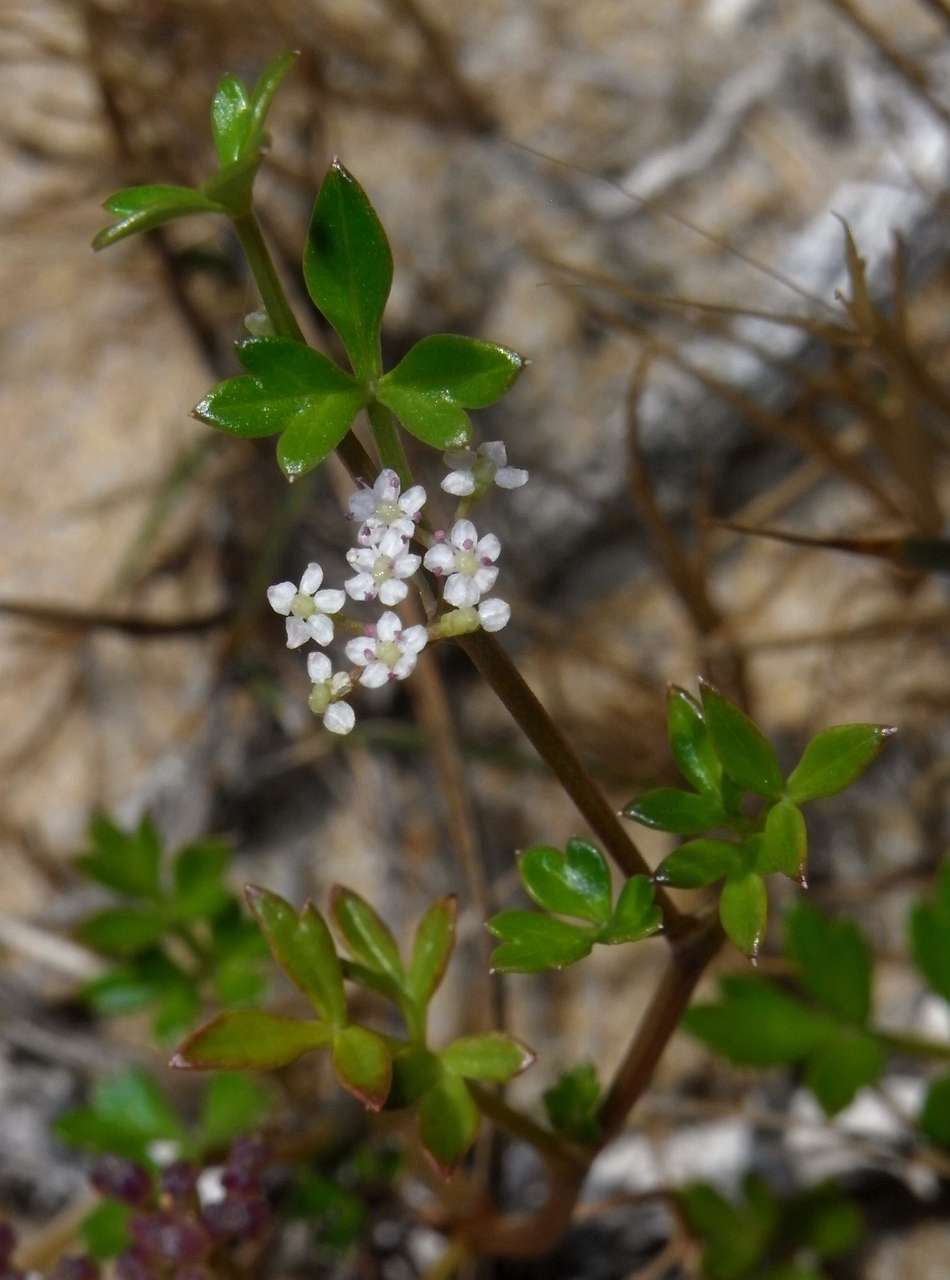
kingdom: Plantae
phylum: Tracheophyta
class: Magnoliopsida
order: Apiales
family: Apiaceae
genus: Apium
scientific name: Apium prostratum
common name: Prostrate marshwort
